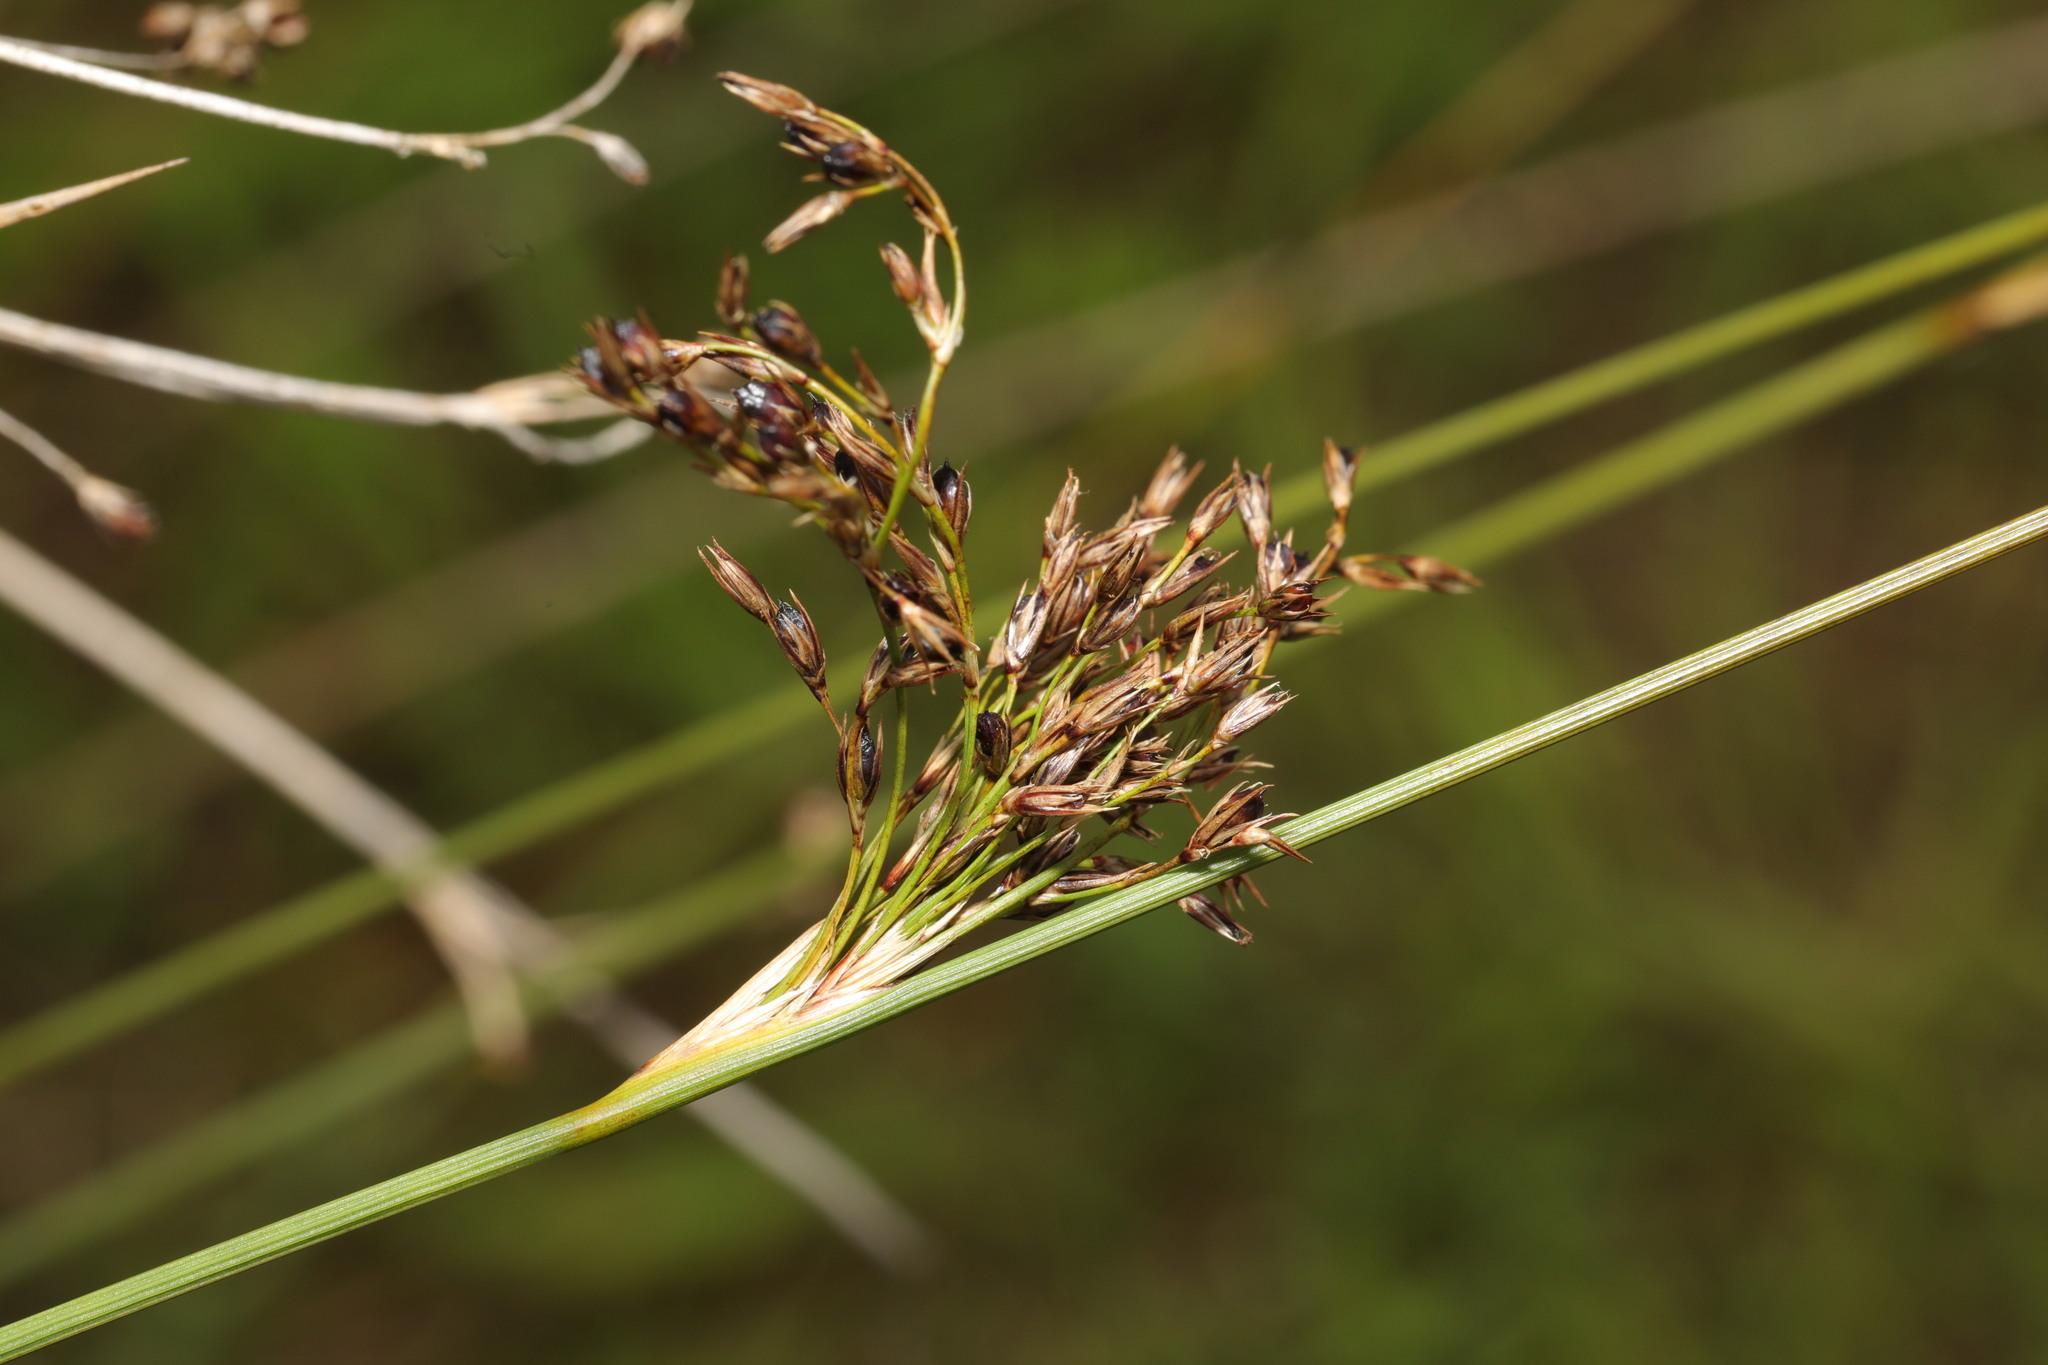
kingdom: Plantae
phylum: Tracheophyta
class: Liliopsida
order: Poales
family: Juncaceae
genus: Juncus
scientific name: Juncus inflexus
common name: Hard rush
